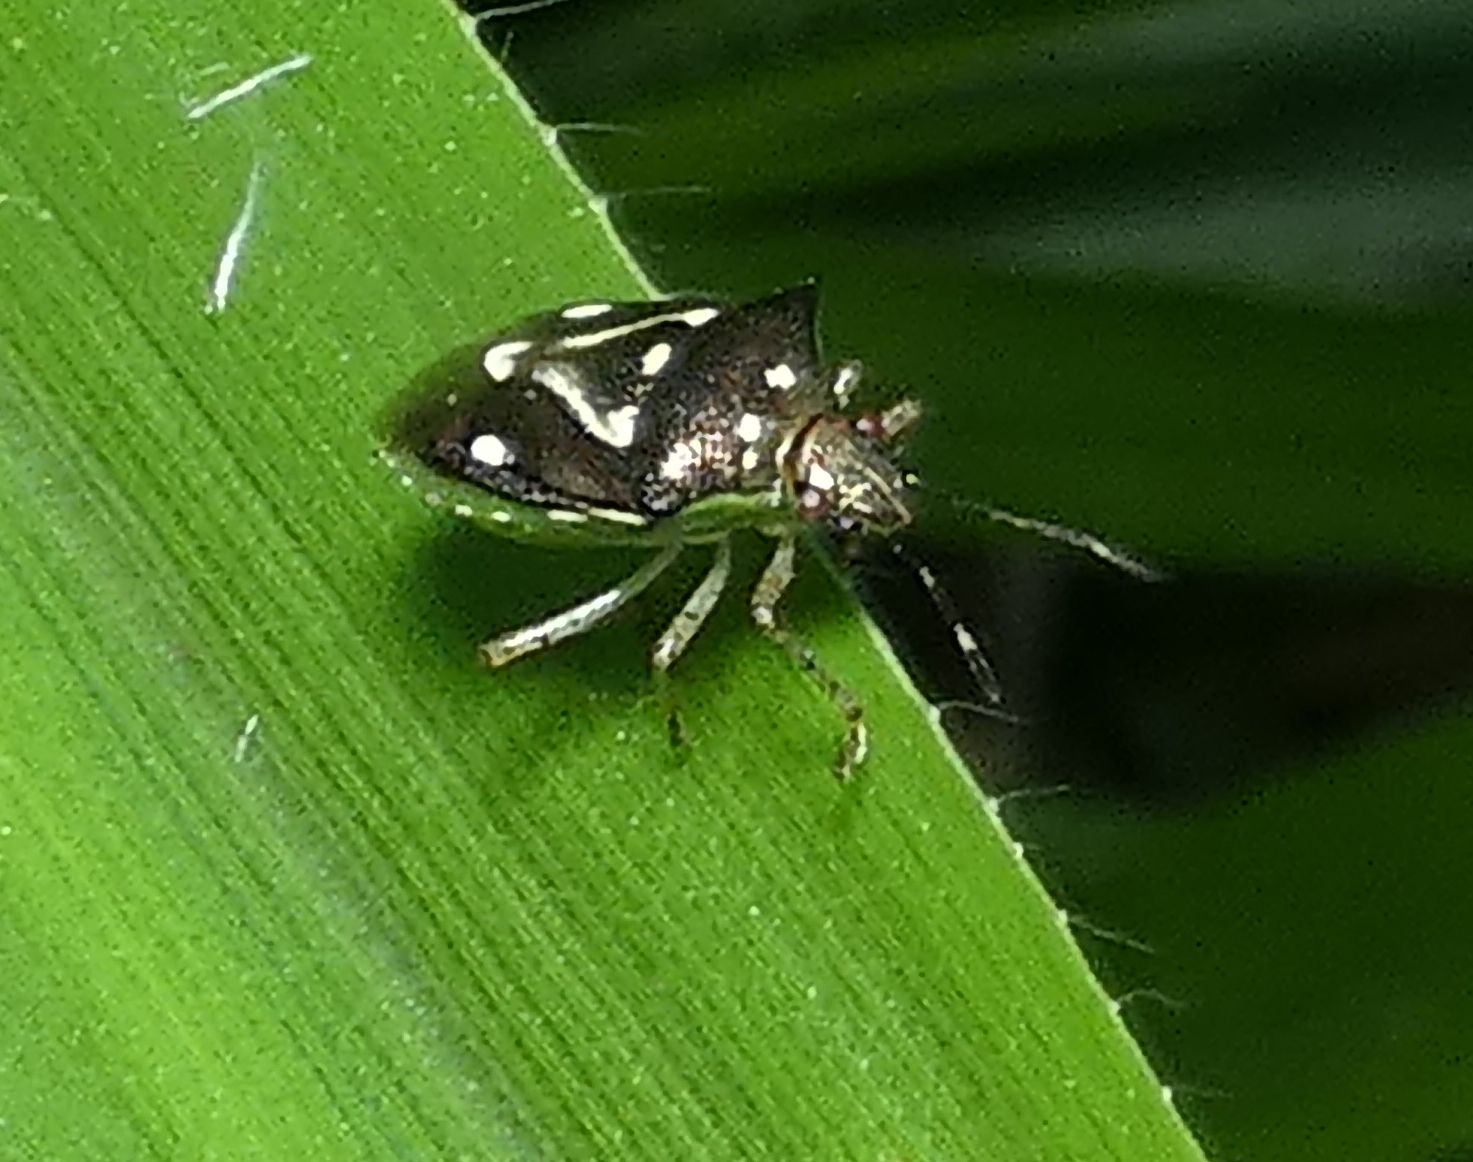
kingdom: Animalia
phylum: Arthropoda
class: Insecta
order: Hemiptera
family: Pentatomidae
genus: Mormidea
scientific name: Mormidea v-luteum
